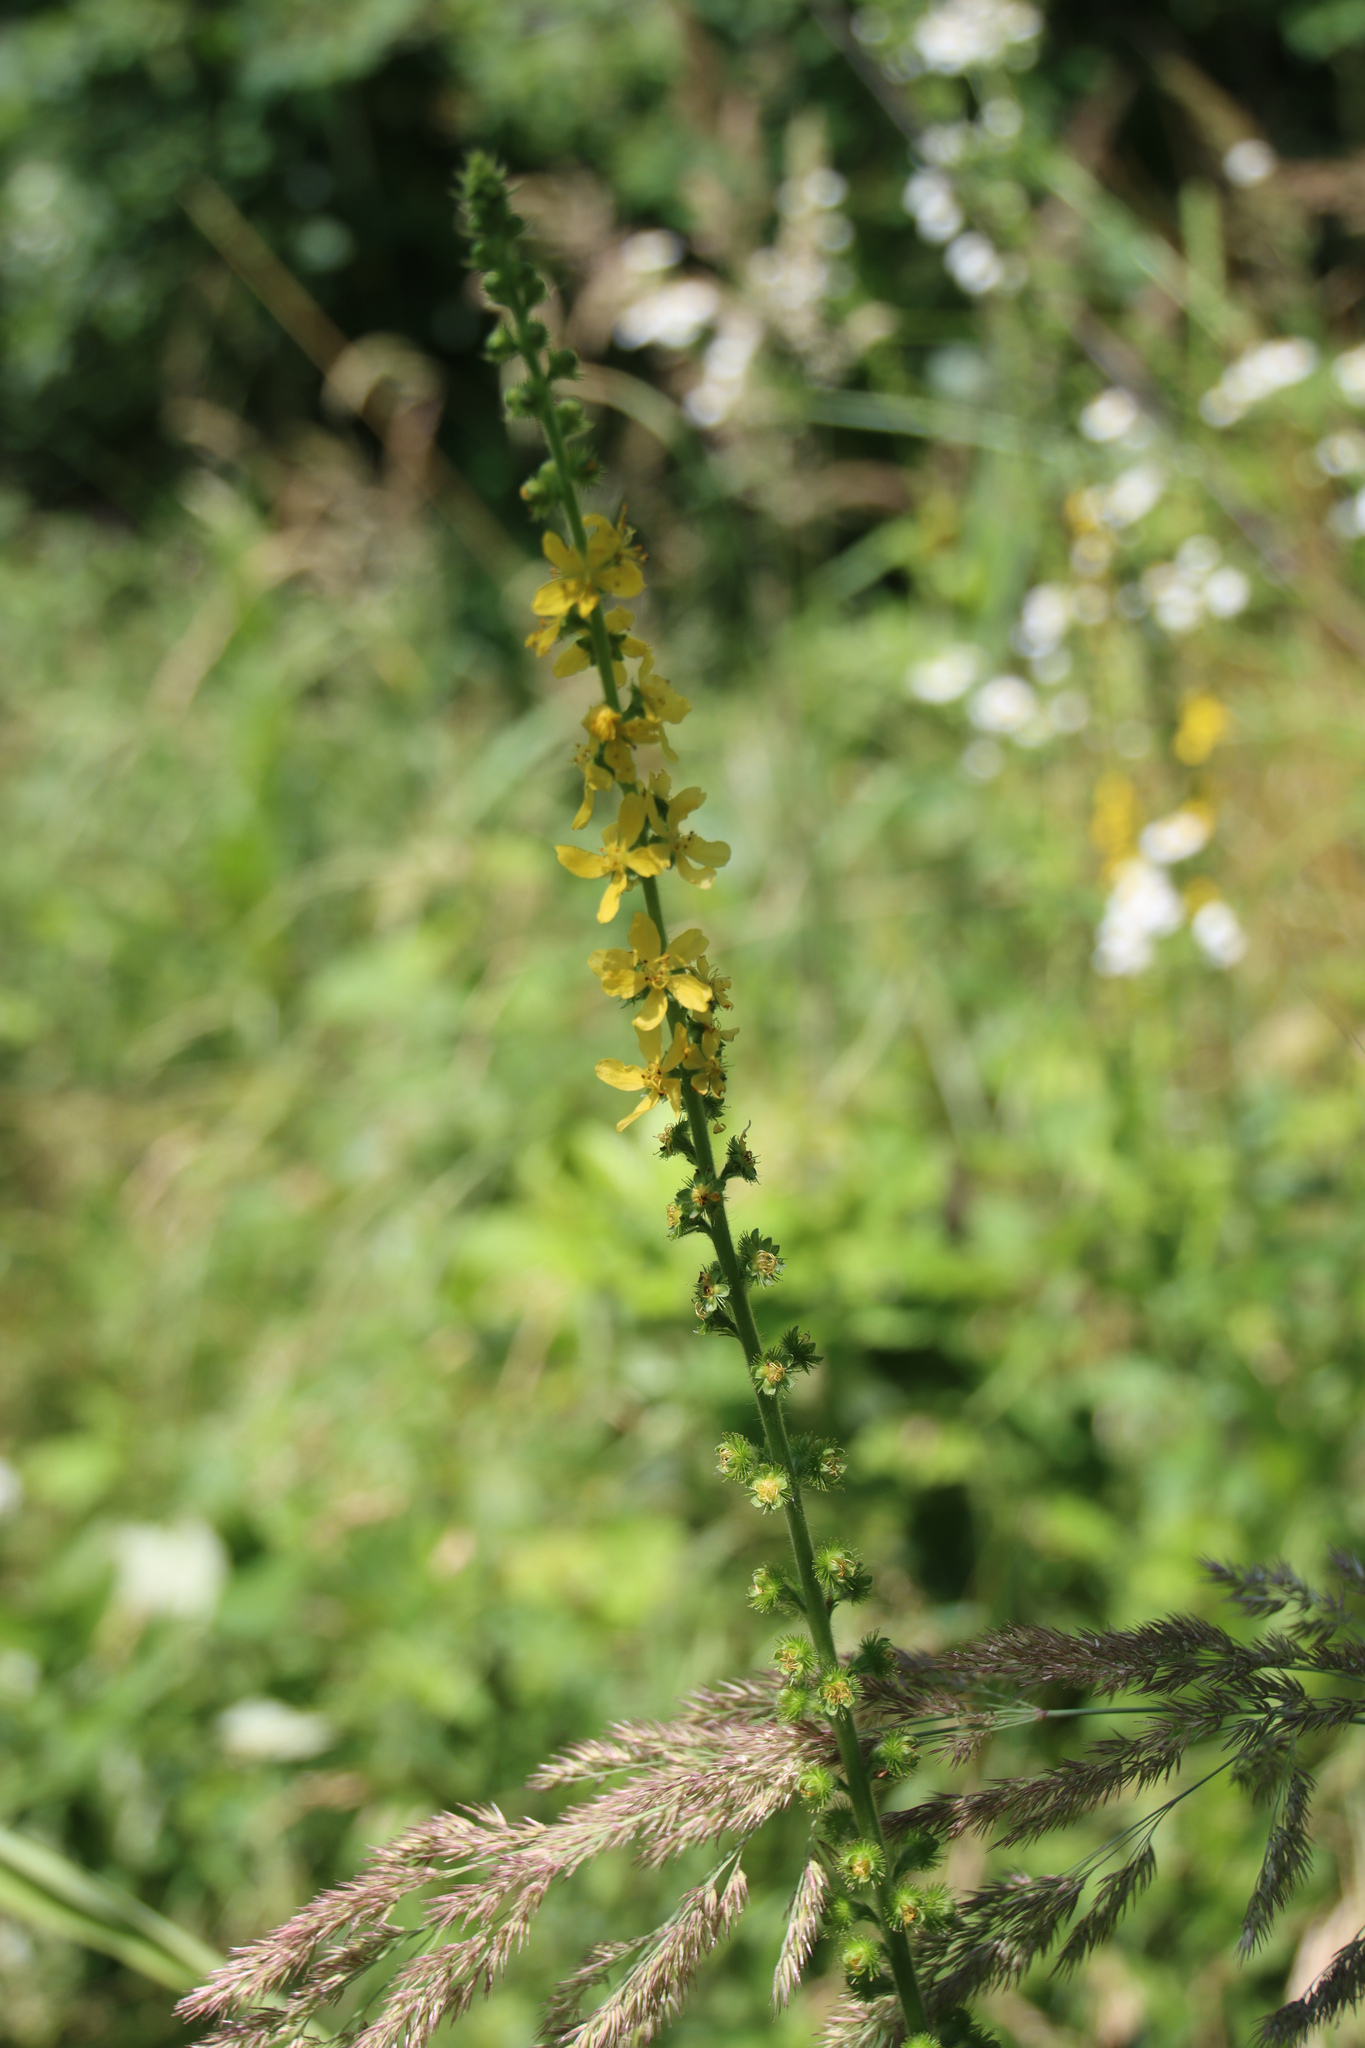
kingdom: Plantae
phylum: Tracheophyta
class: Magnoliopsida
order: Rosales
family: Rosaceae
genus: Agrimonia
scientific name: Agrimonia eupatoria
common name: Agrimony
